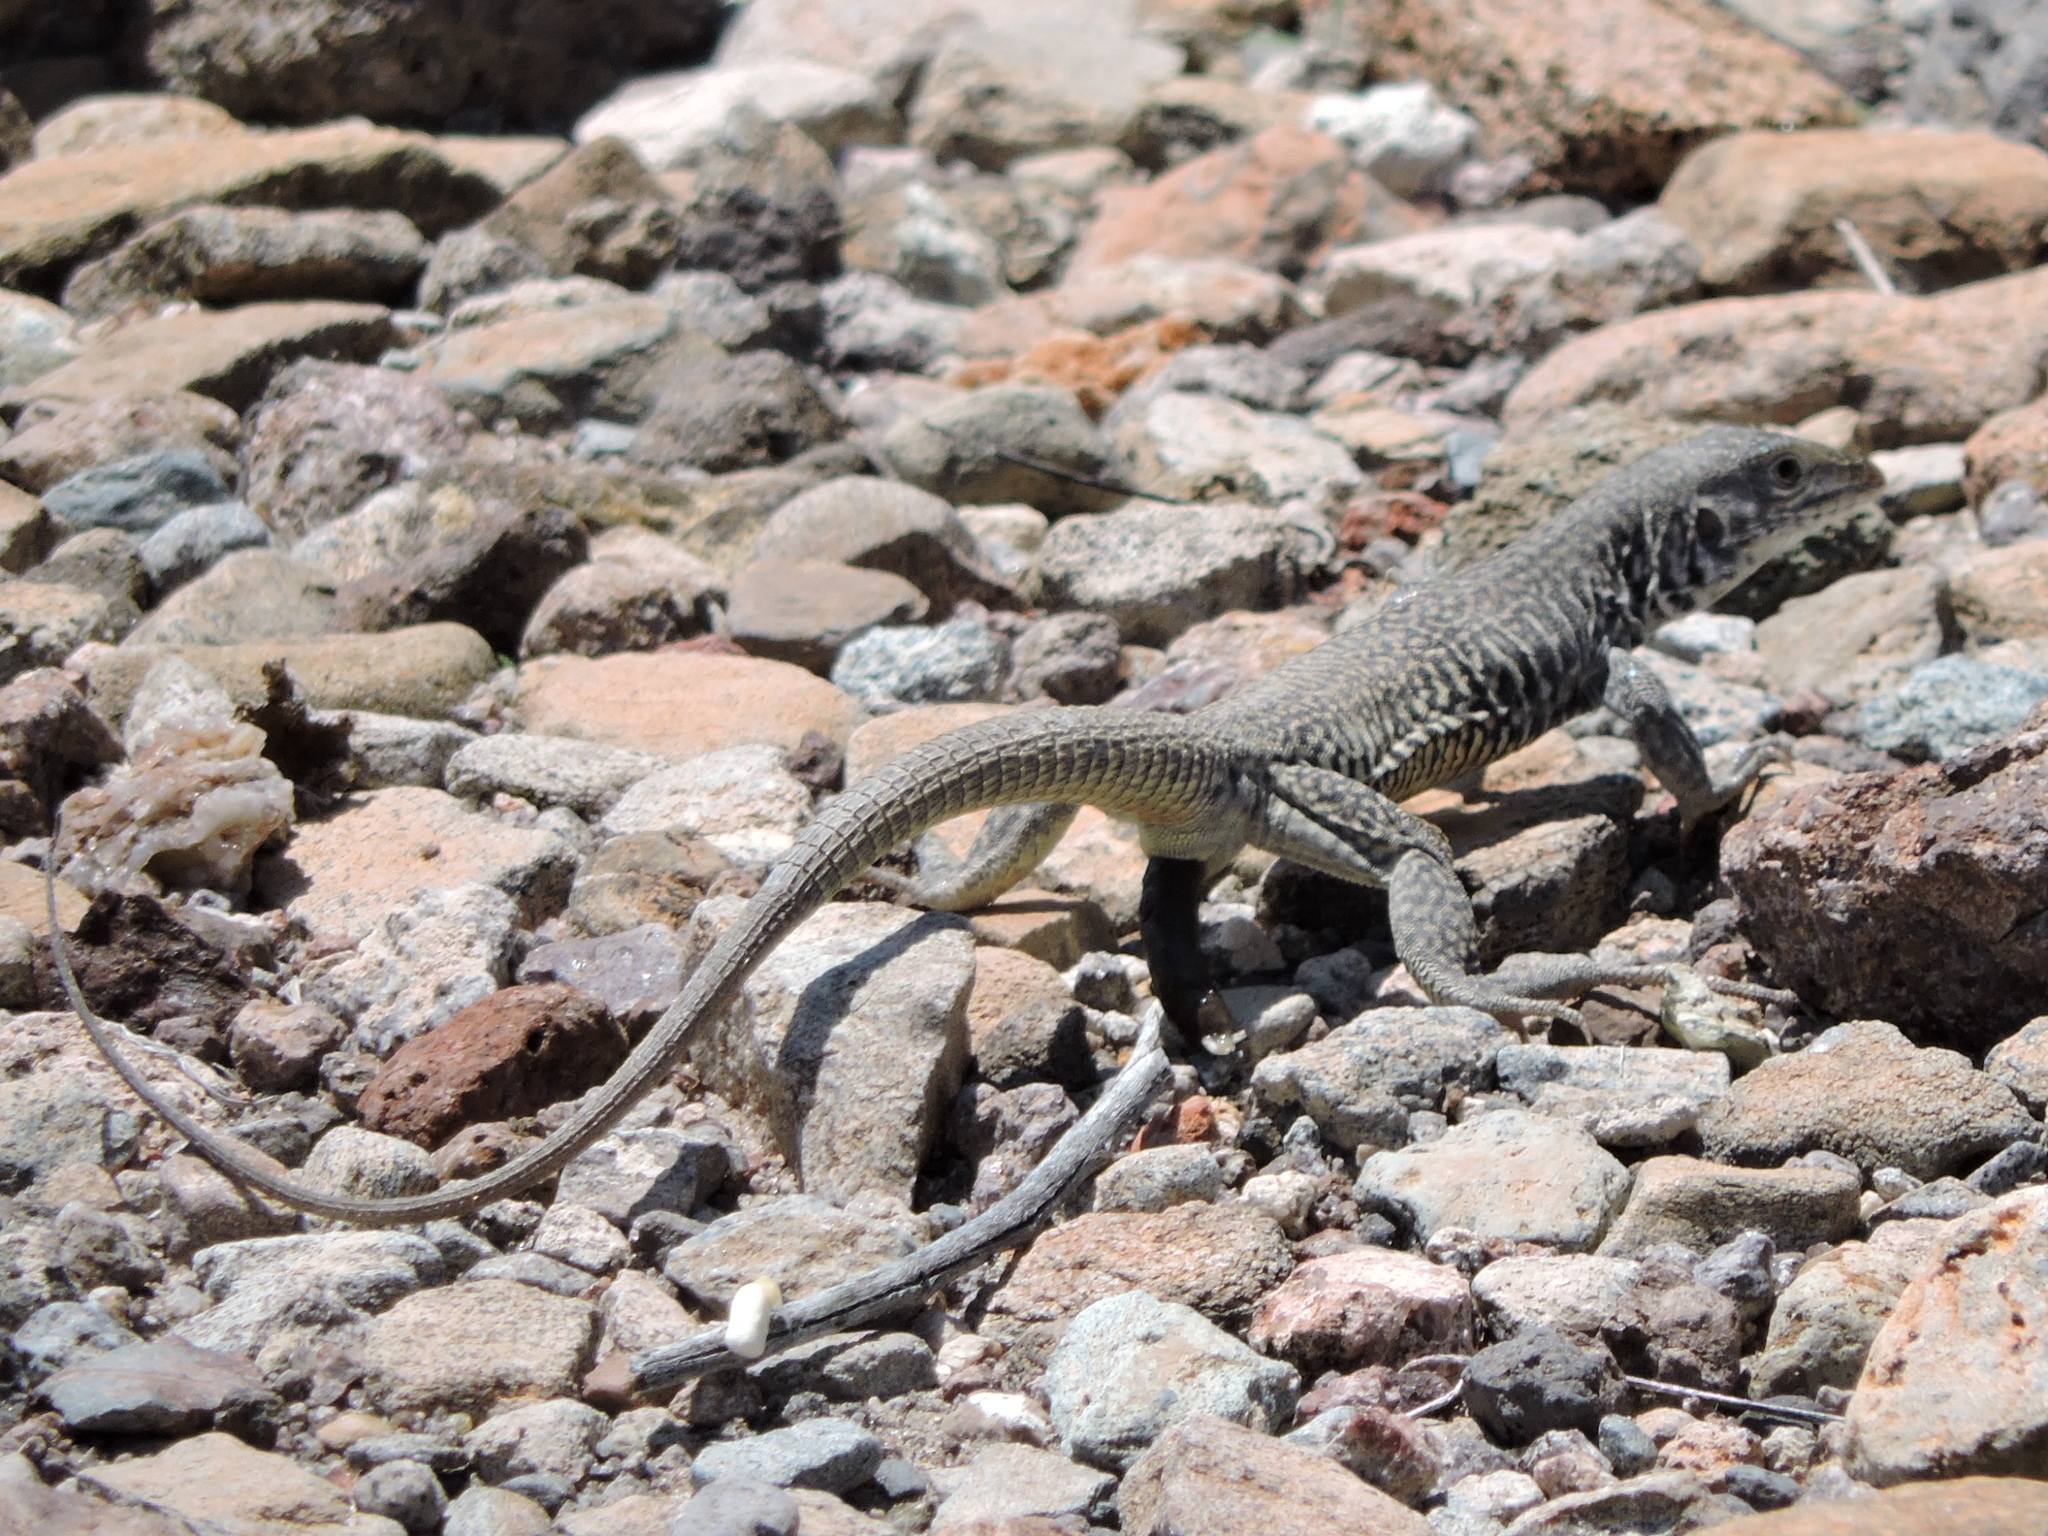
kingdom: Animalia
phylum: Chordata
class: Squamata
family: Teiidae
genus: Aspidoscelis
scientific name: Aspidoscelis marmoratus
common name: Eastern marbled whiptail [reticuloriens]
